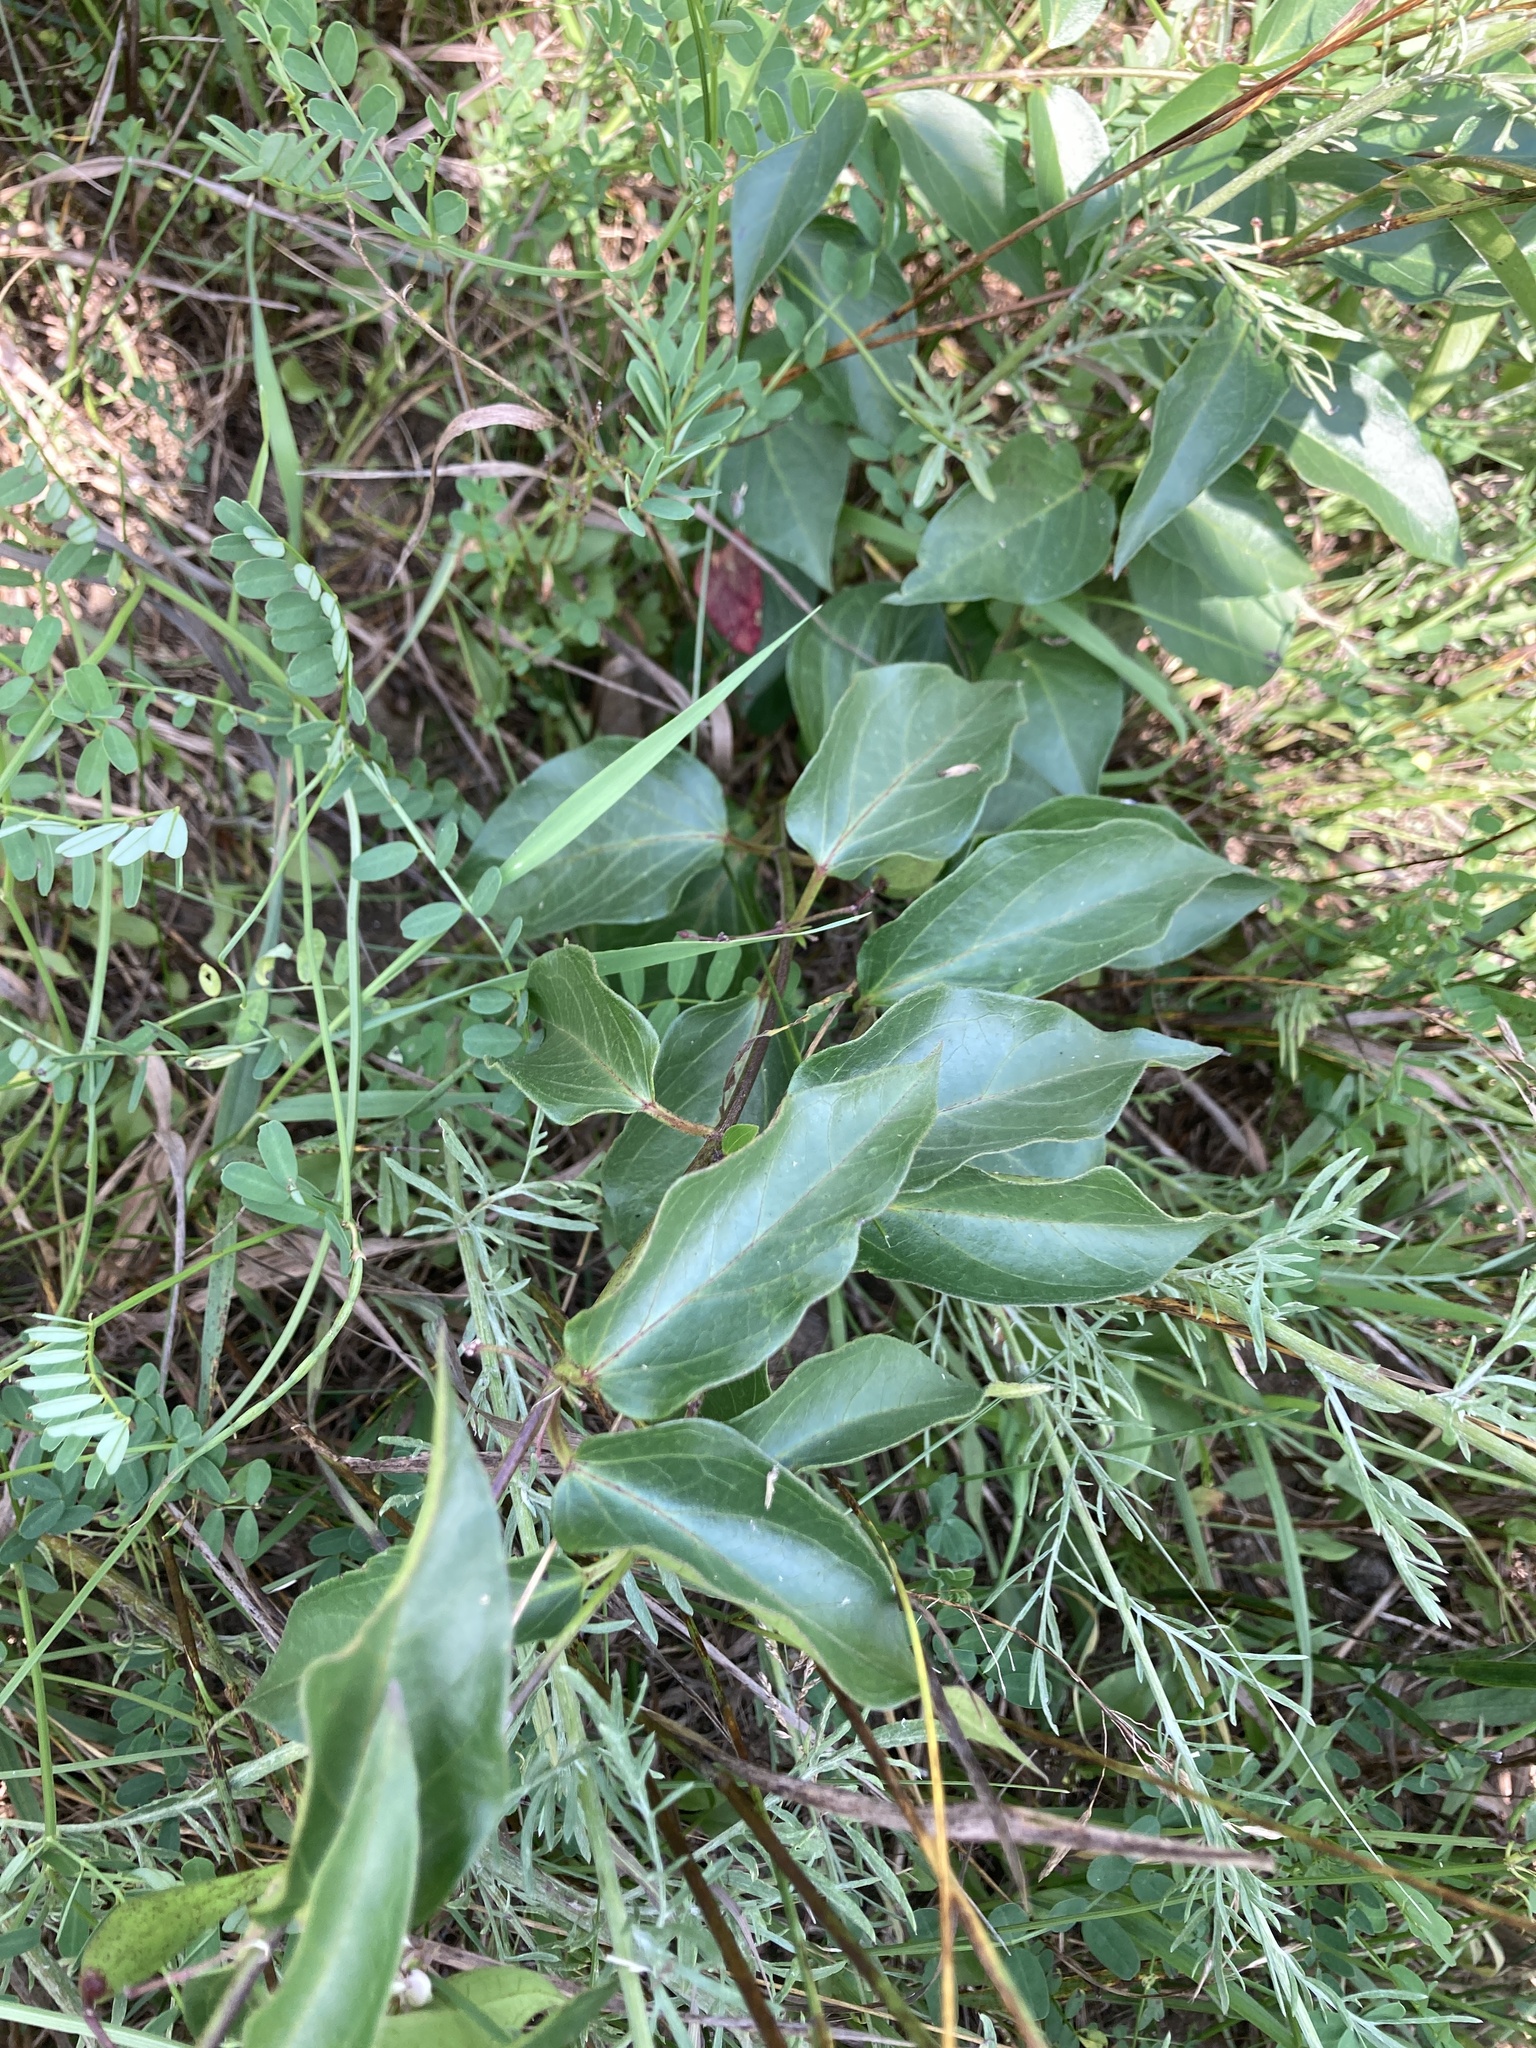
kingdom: Plantae
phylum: Tracheophyta
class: Magnoliopsida
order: Gentianales
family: Apocynaceae
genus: Vincetoxicum
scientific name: Vincetoxicum nigrum
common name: Black swallow-wort
